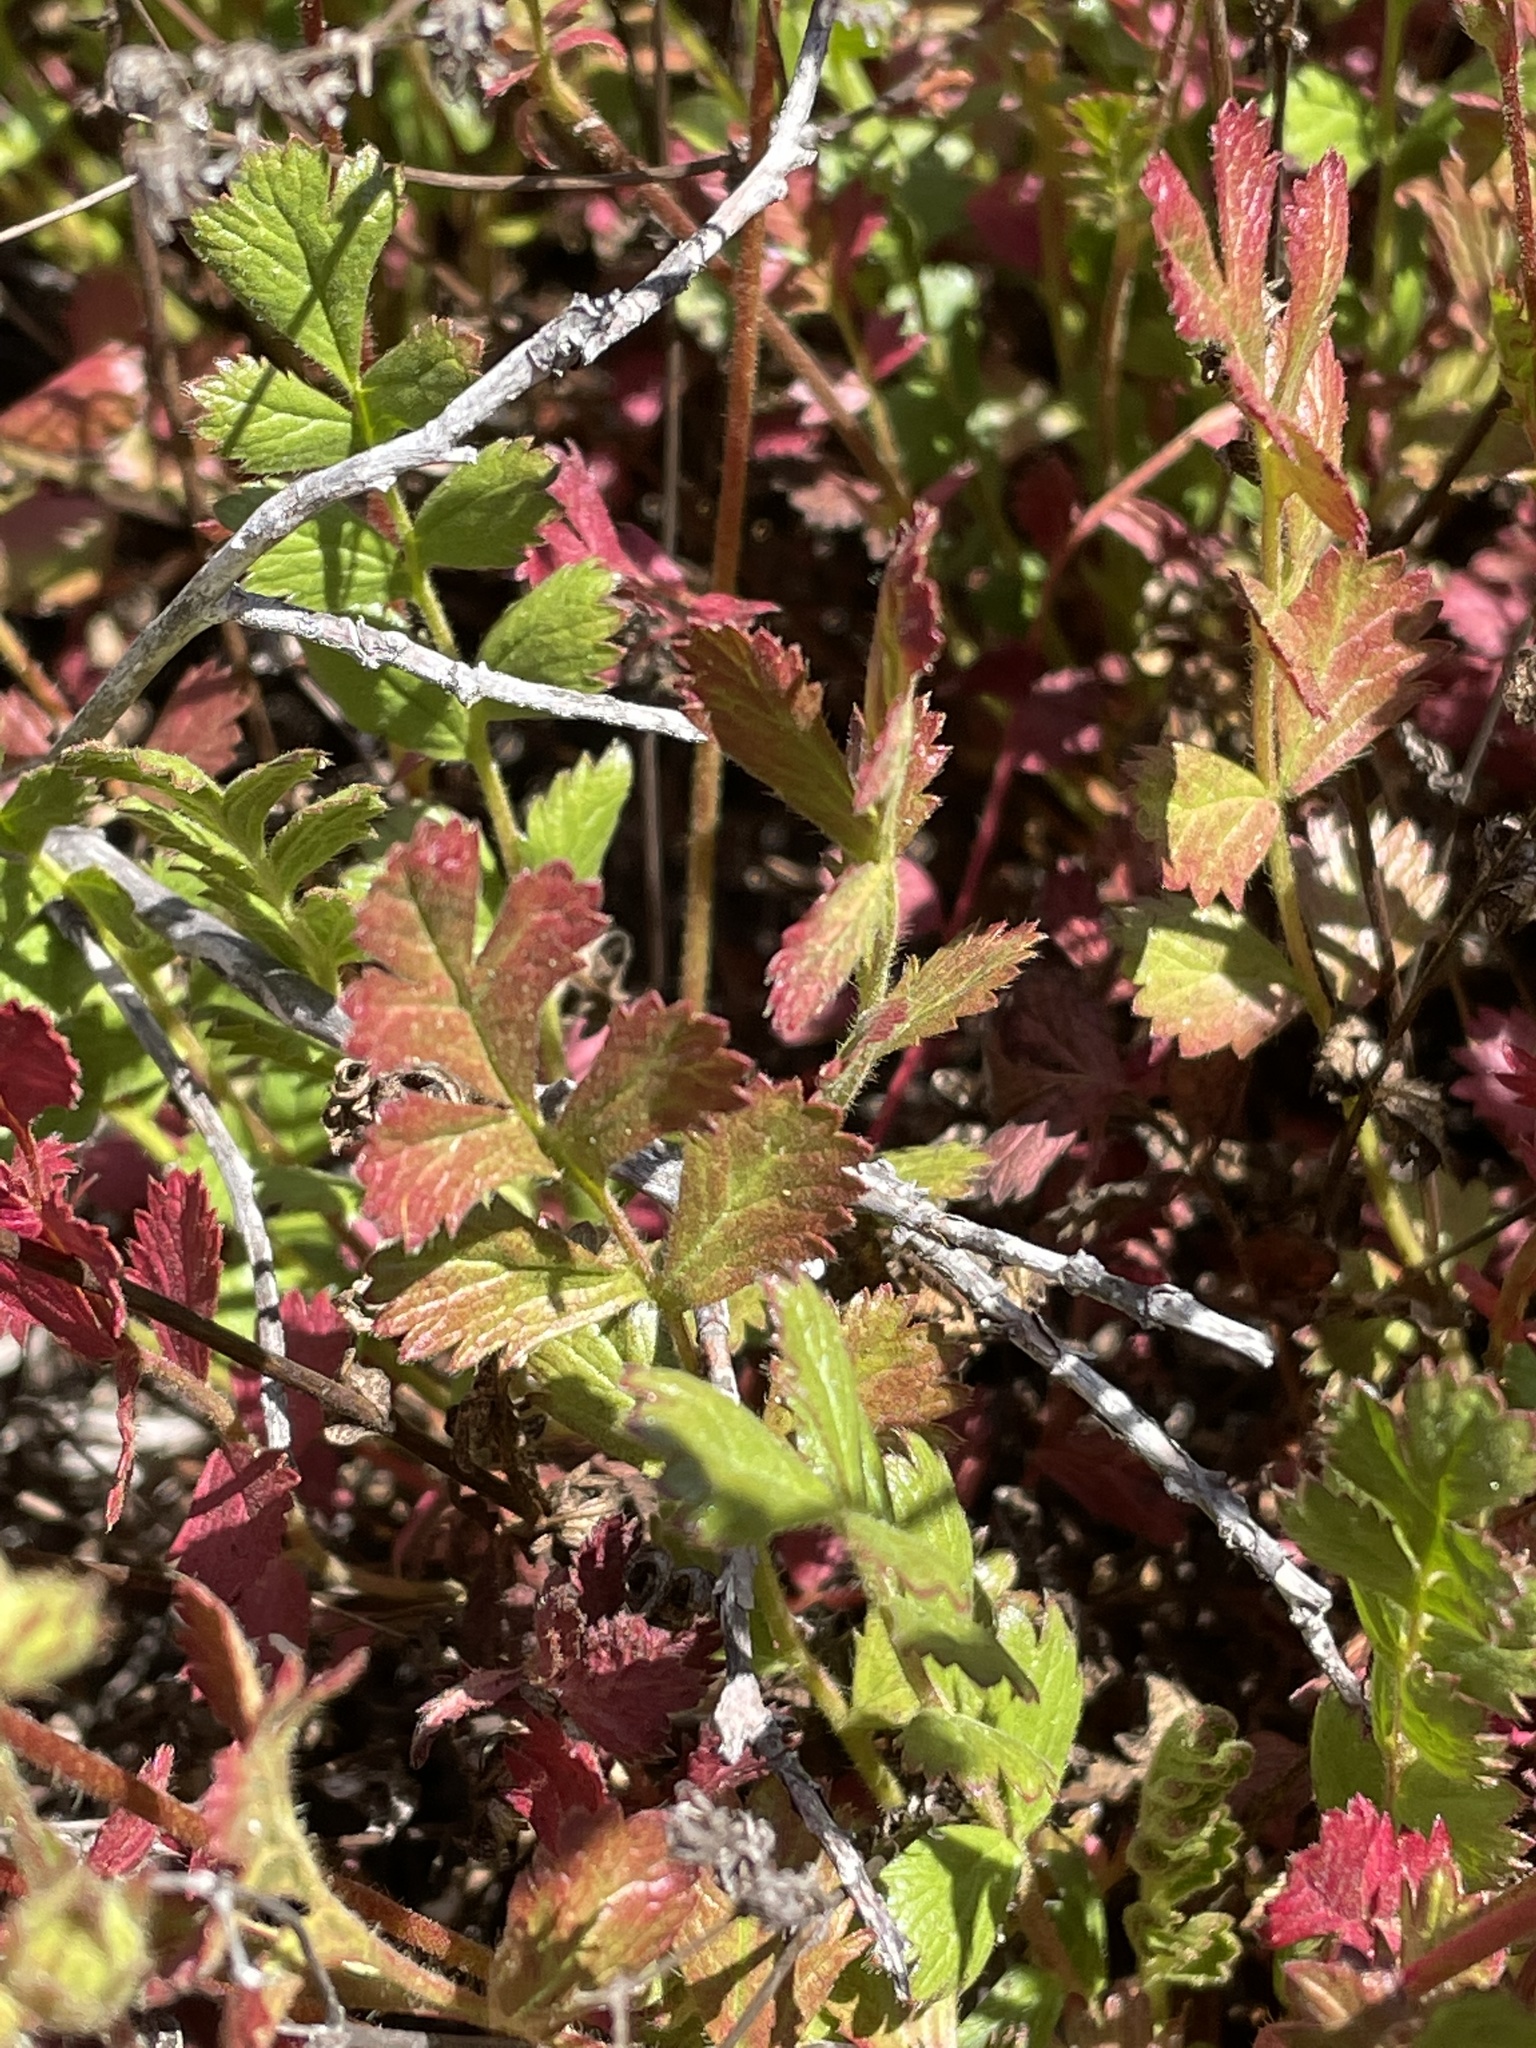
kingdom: Plantae
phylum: Tracheophyta
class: Magnoliopsida
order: Rosales
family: Rosaceae
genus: Potentilla
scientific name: Potentilla
